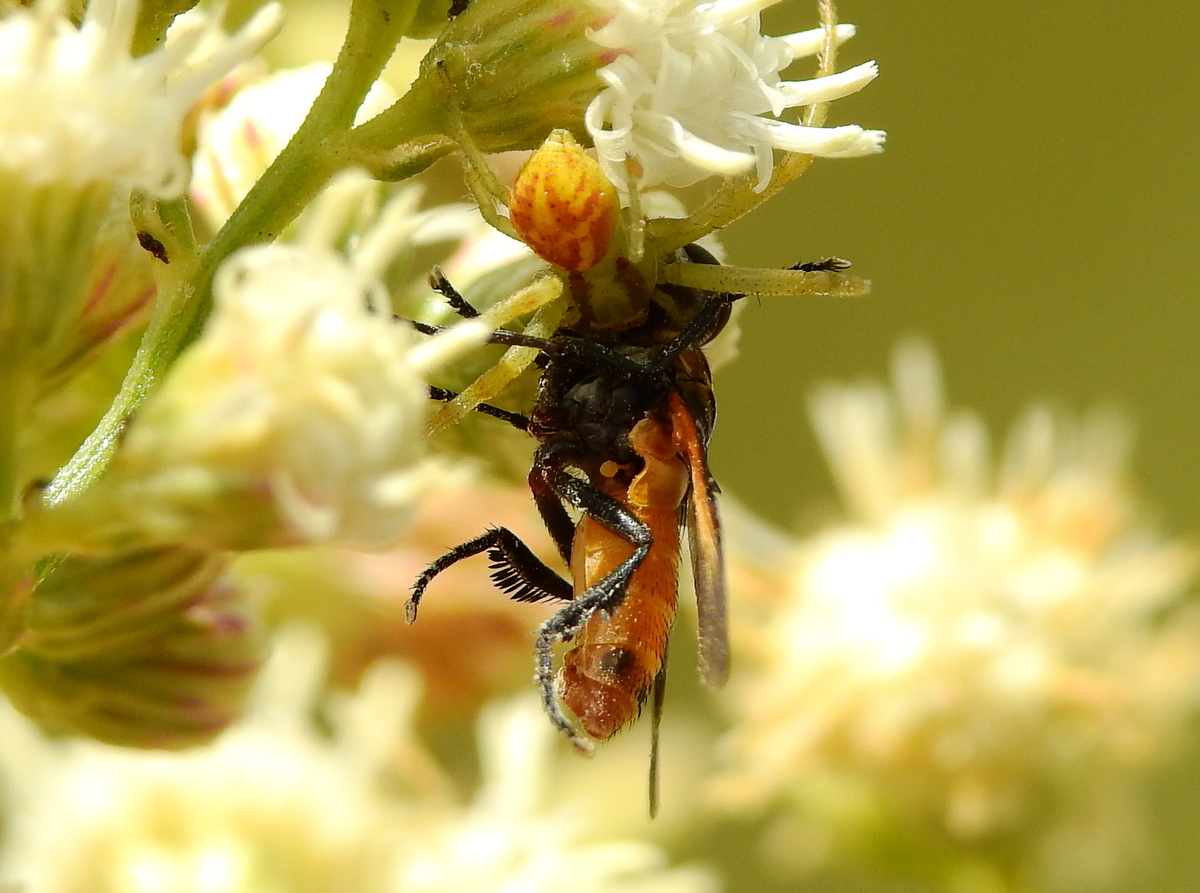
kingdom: Animalia
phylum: Arthropoda
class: Arachnida
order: Araneae
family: Thomisidae
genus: Misumenops
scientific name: Misumenops
